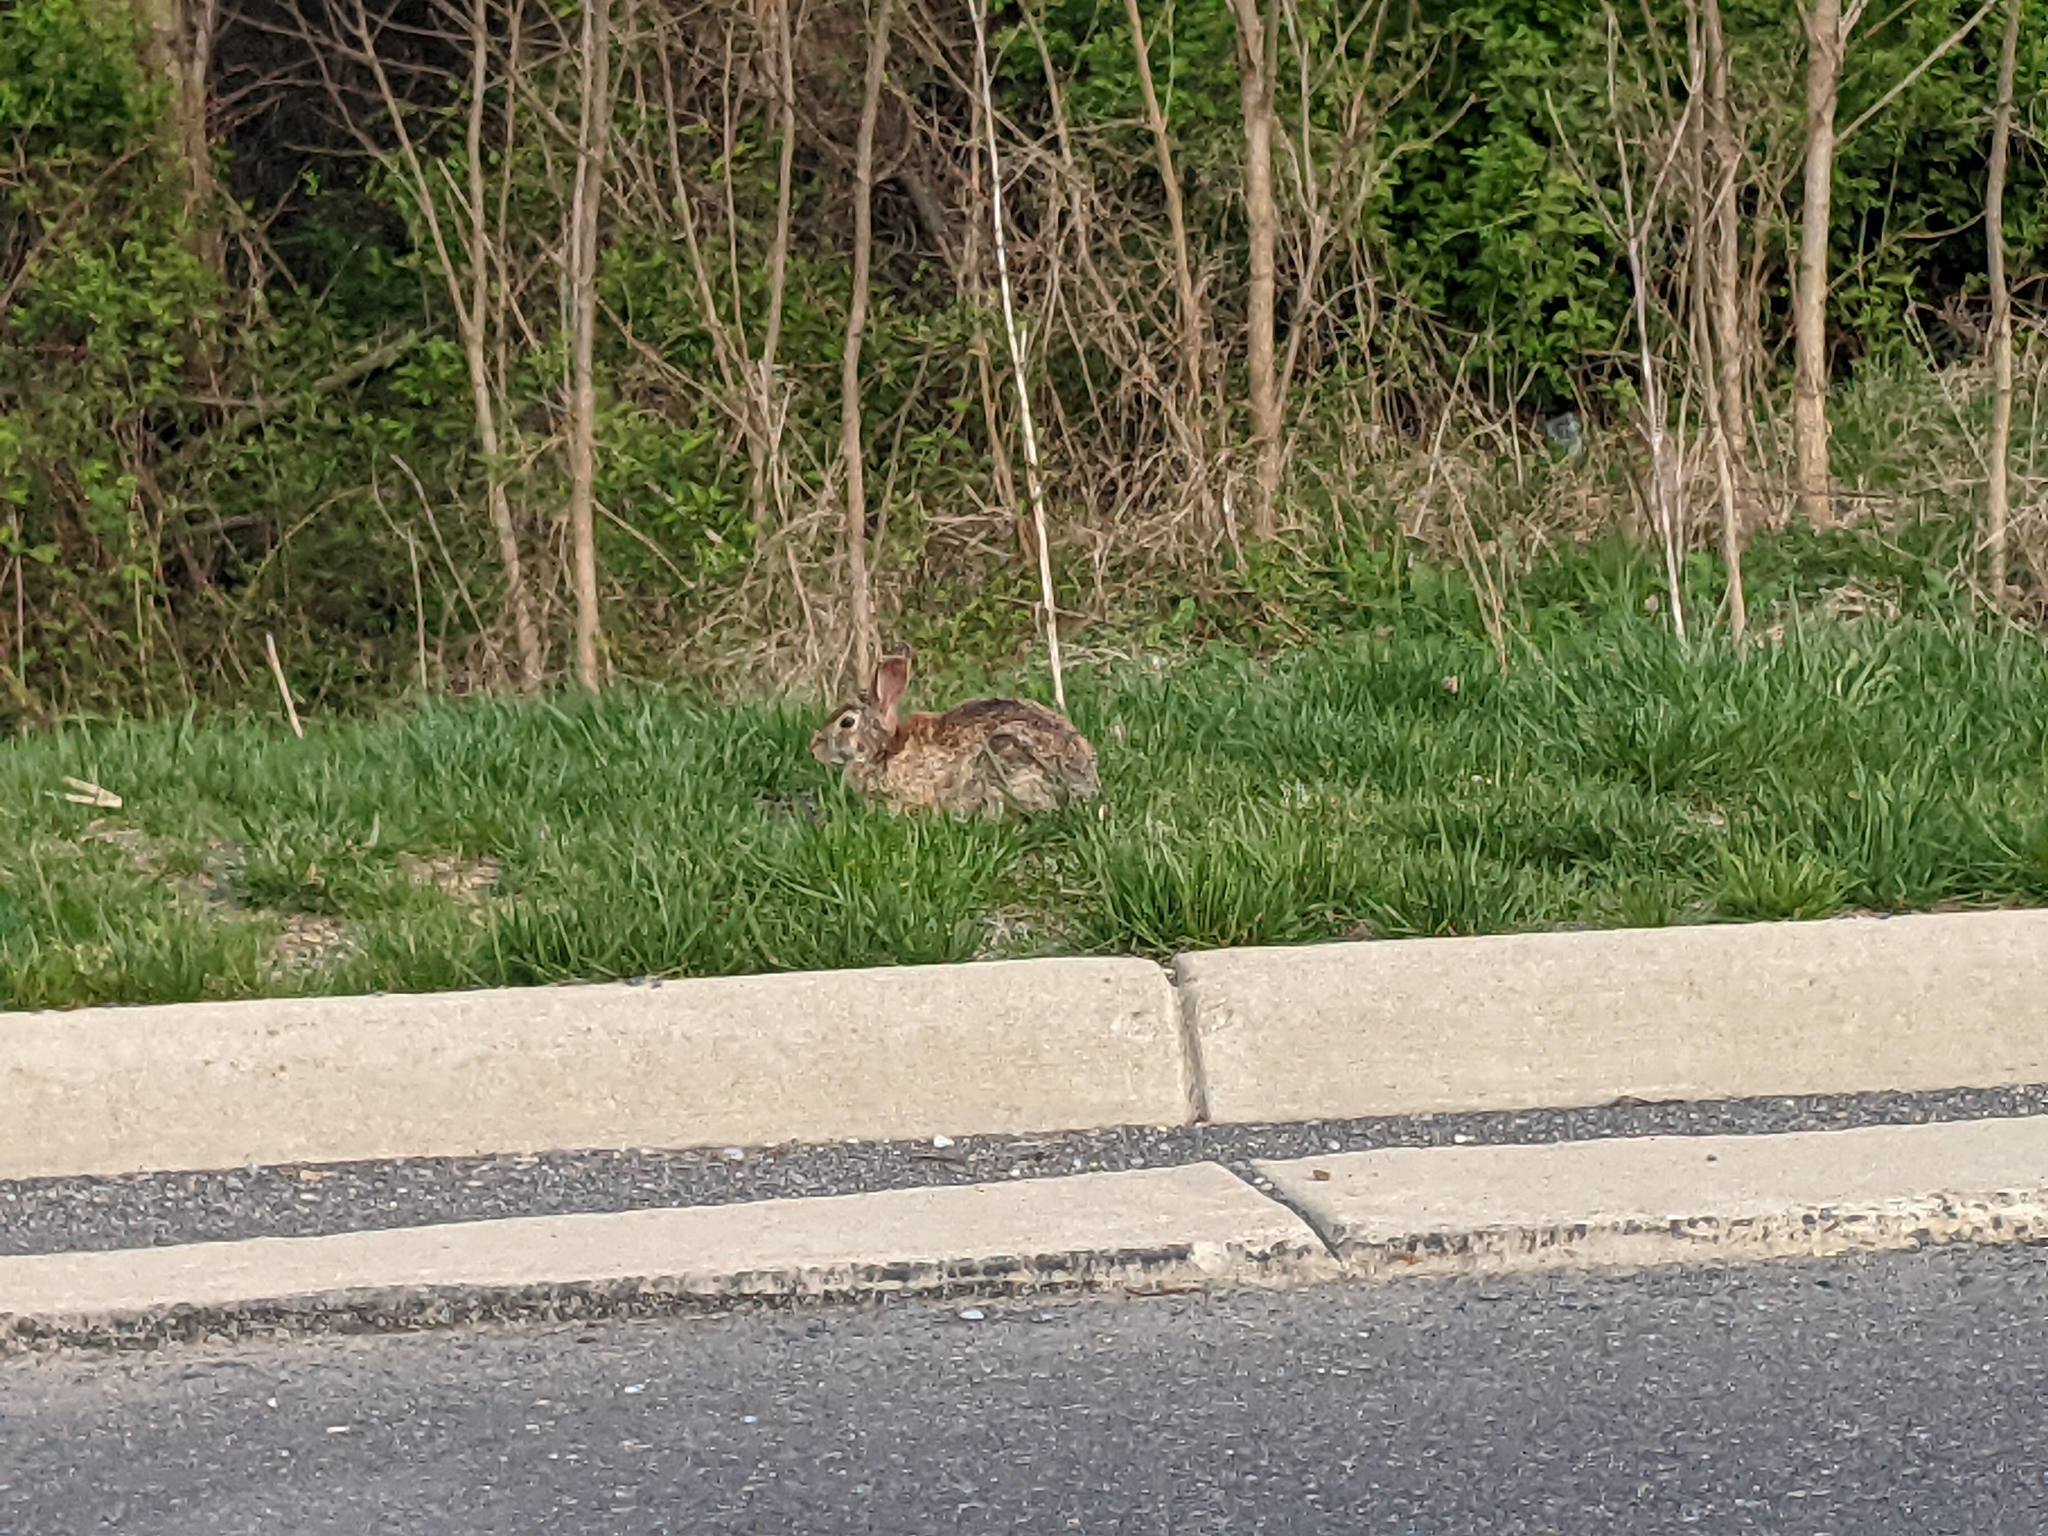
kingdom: Animalia
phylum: Chordata
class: Mammalia
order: Lagomorpha
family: Leporidae
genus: Sylvilagus
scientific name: Sylvilagus floridanus
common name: Eastern cottontail
